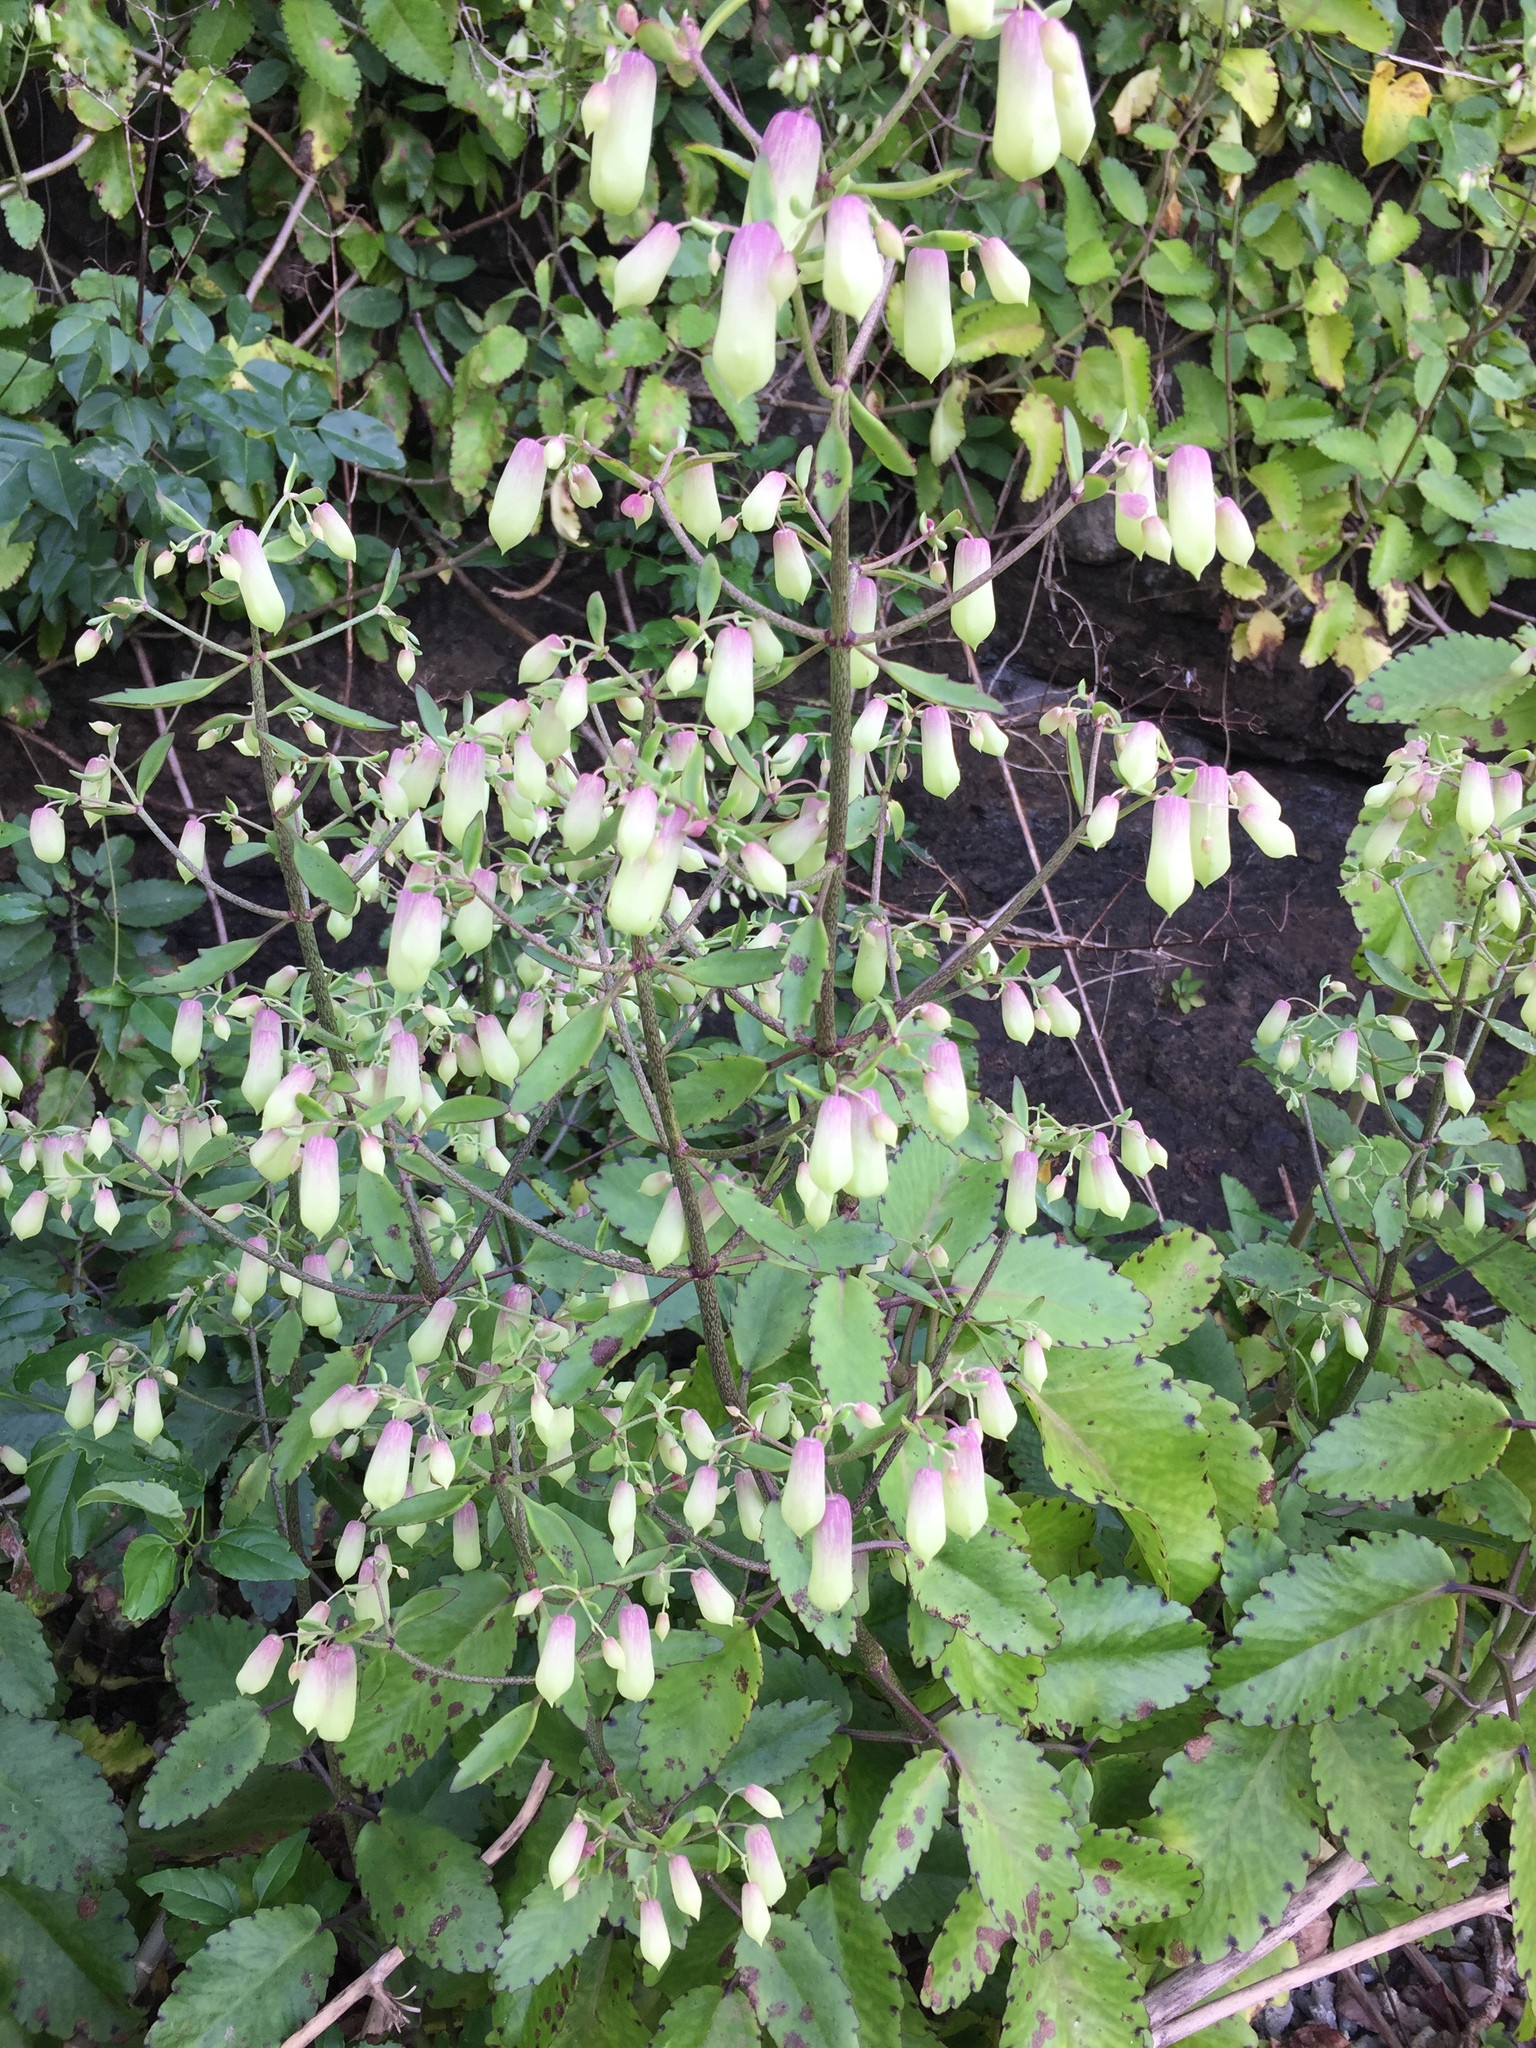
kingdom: Plantae
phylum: Tracheophyta
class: Magnoliopsida
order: Saxifragales
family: Crassulaceae
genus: Kalanchoe
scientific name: Kalanchoe pinnata
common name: Cathedral bells
